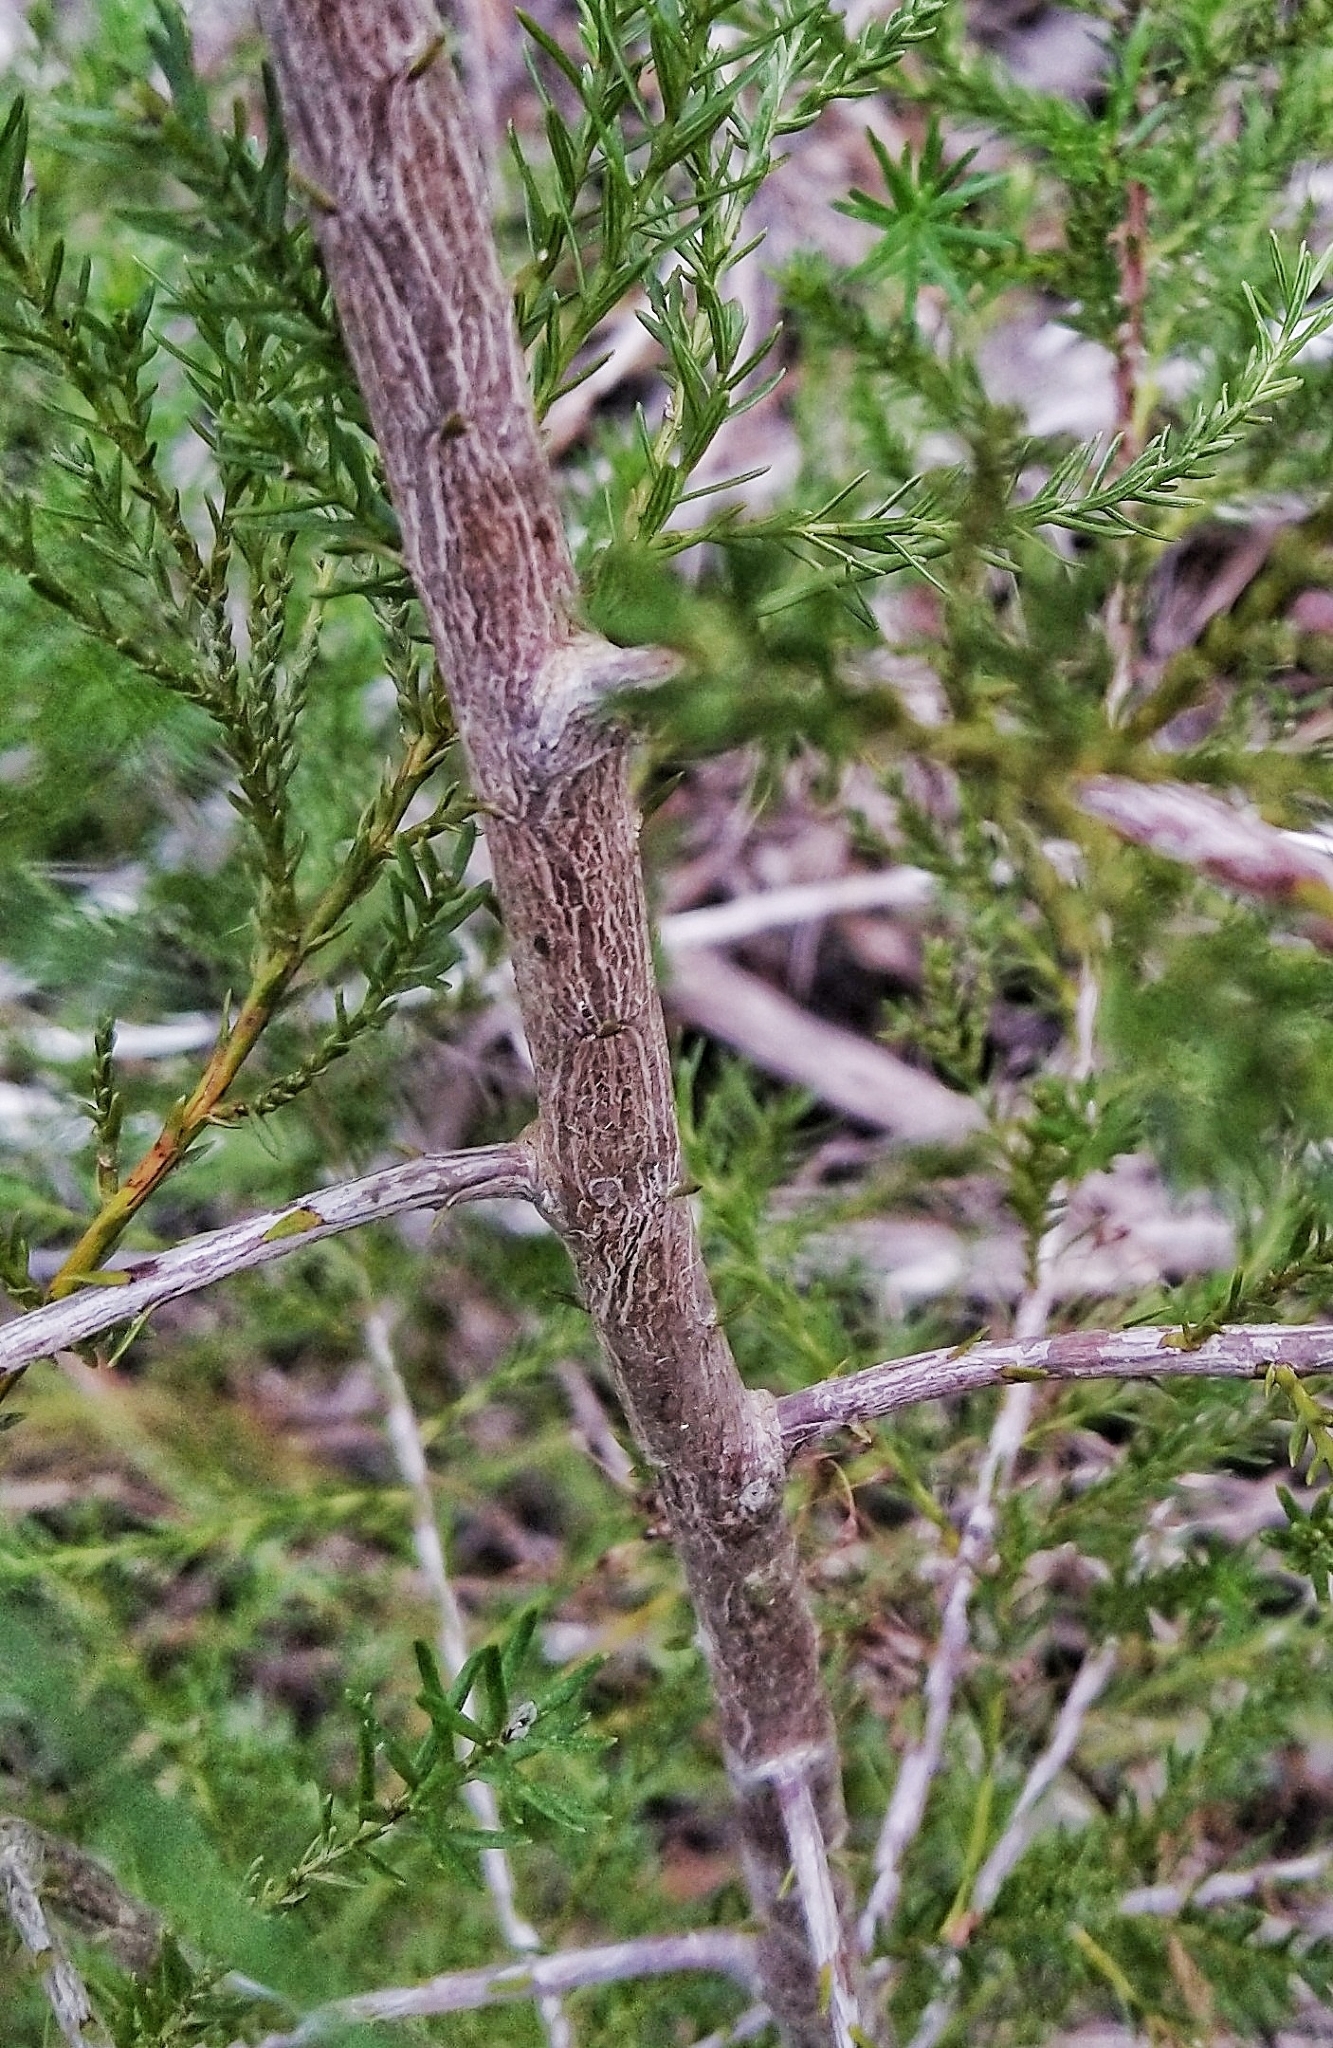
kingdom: Plantae
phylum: Tracheophyta
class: Magnoliopsida
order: Ericales
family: Ericaceae
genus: Erica
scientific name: Erica canaliculata
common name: Hairy grey heather
